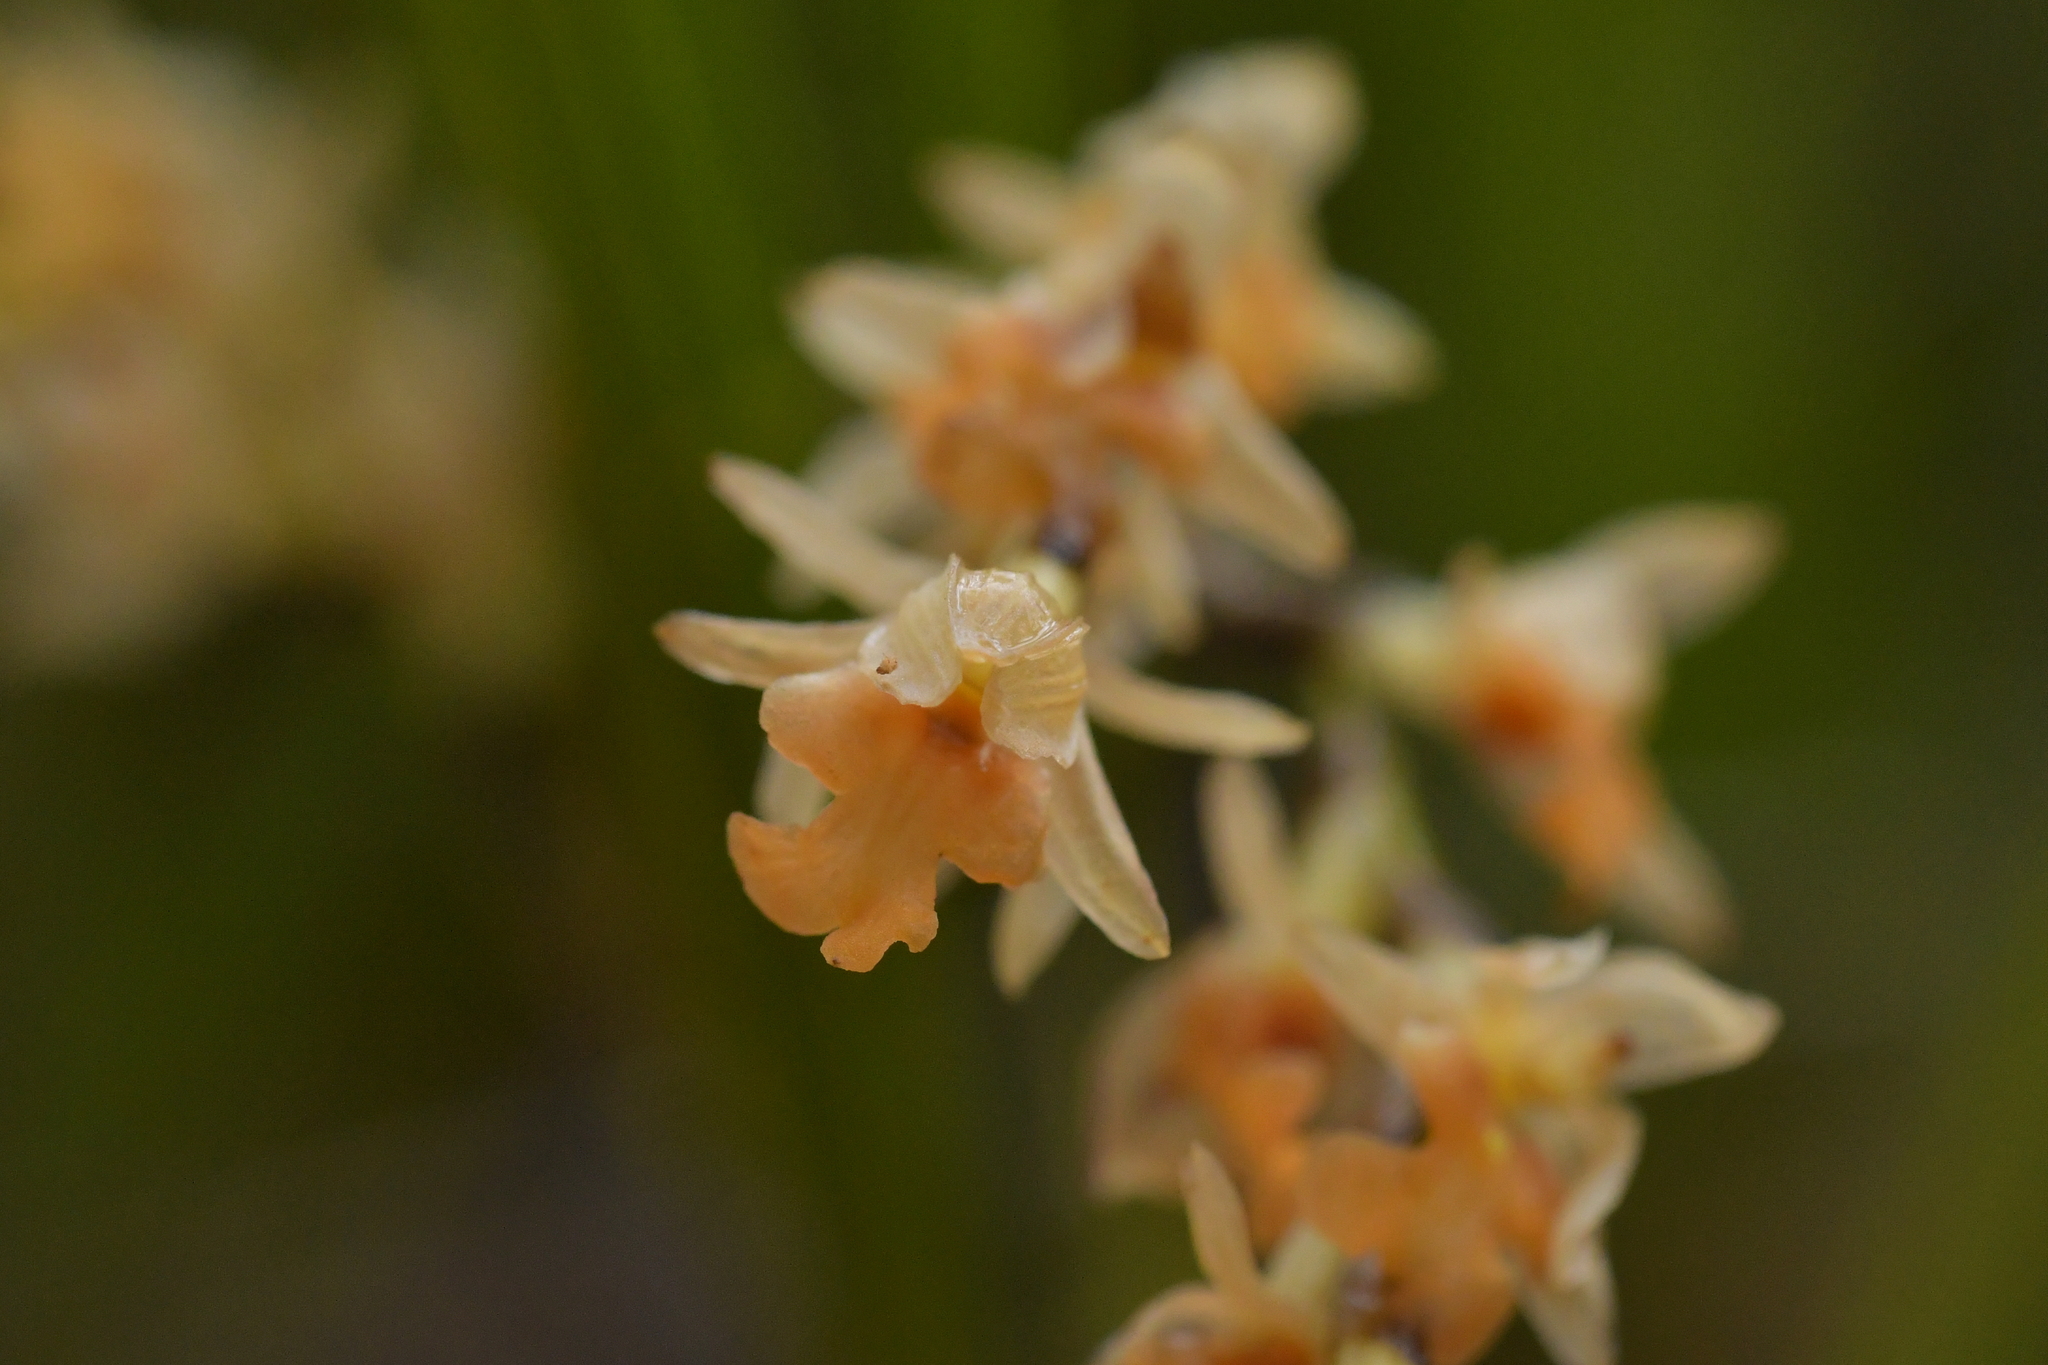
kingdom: Plantae
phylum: Tracheophyta
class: Liliopsida
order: Asparagales
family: Orchidaceae
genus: Earina
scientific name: Earina mucronata
